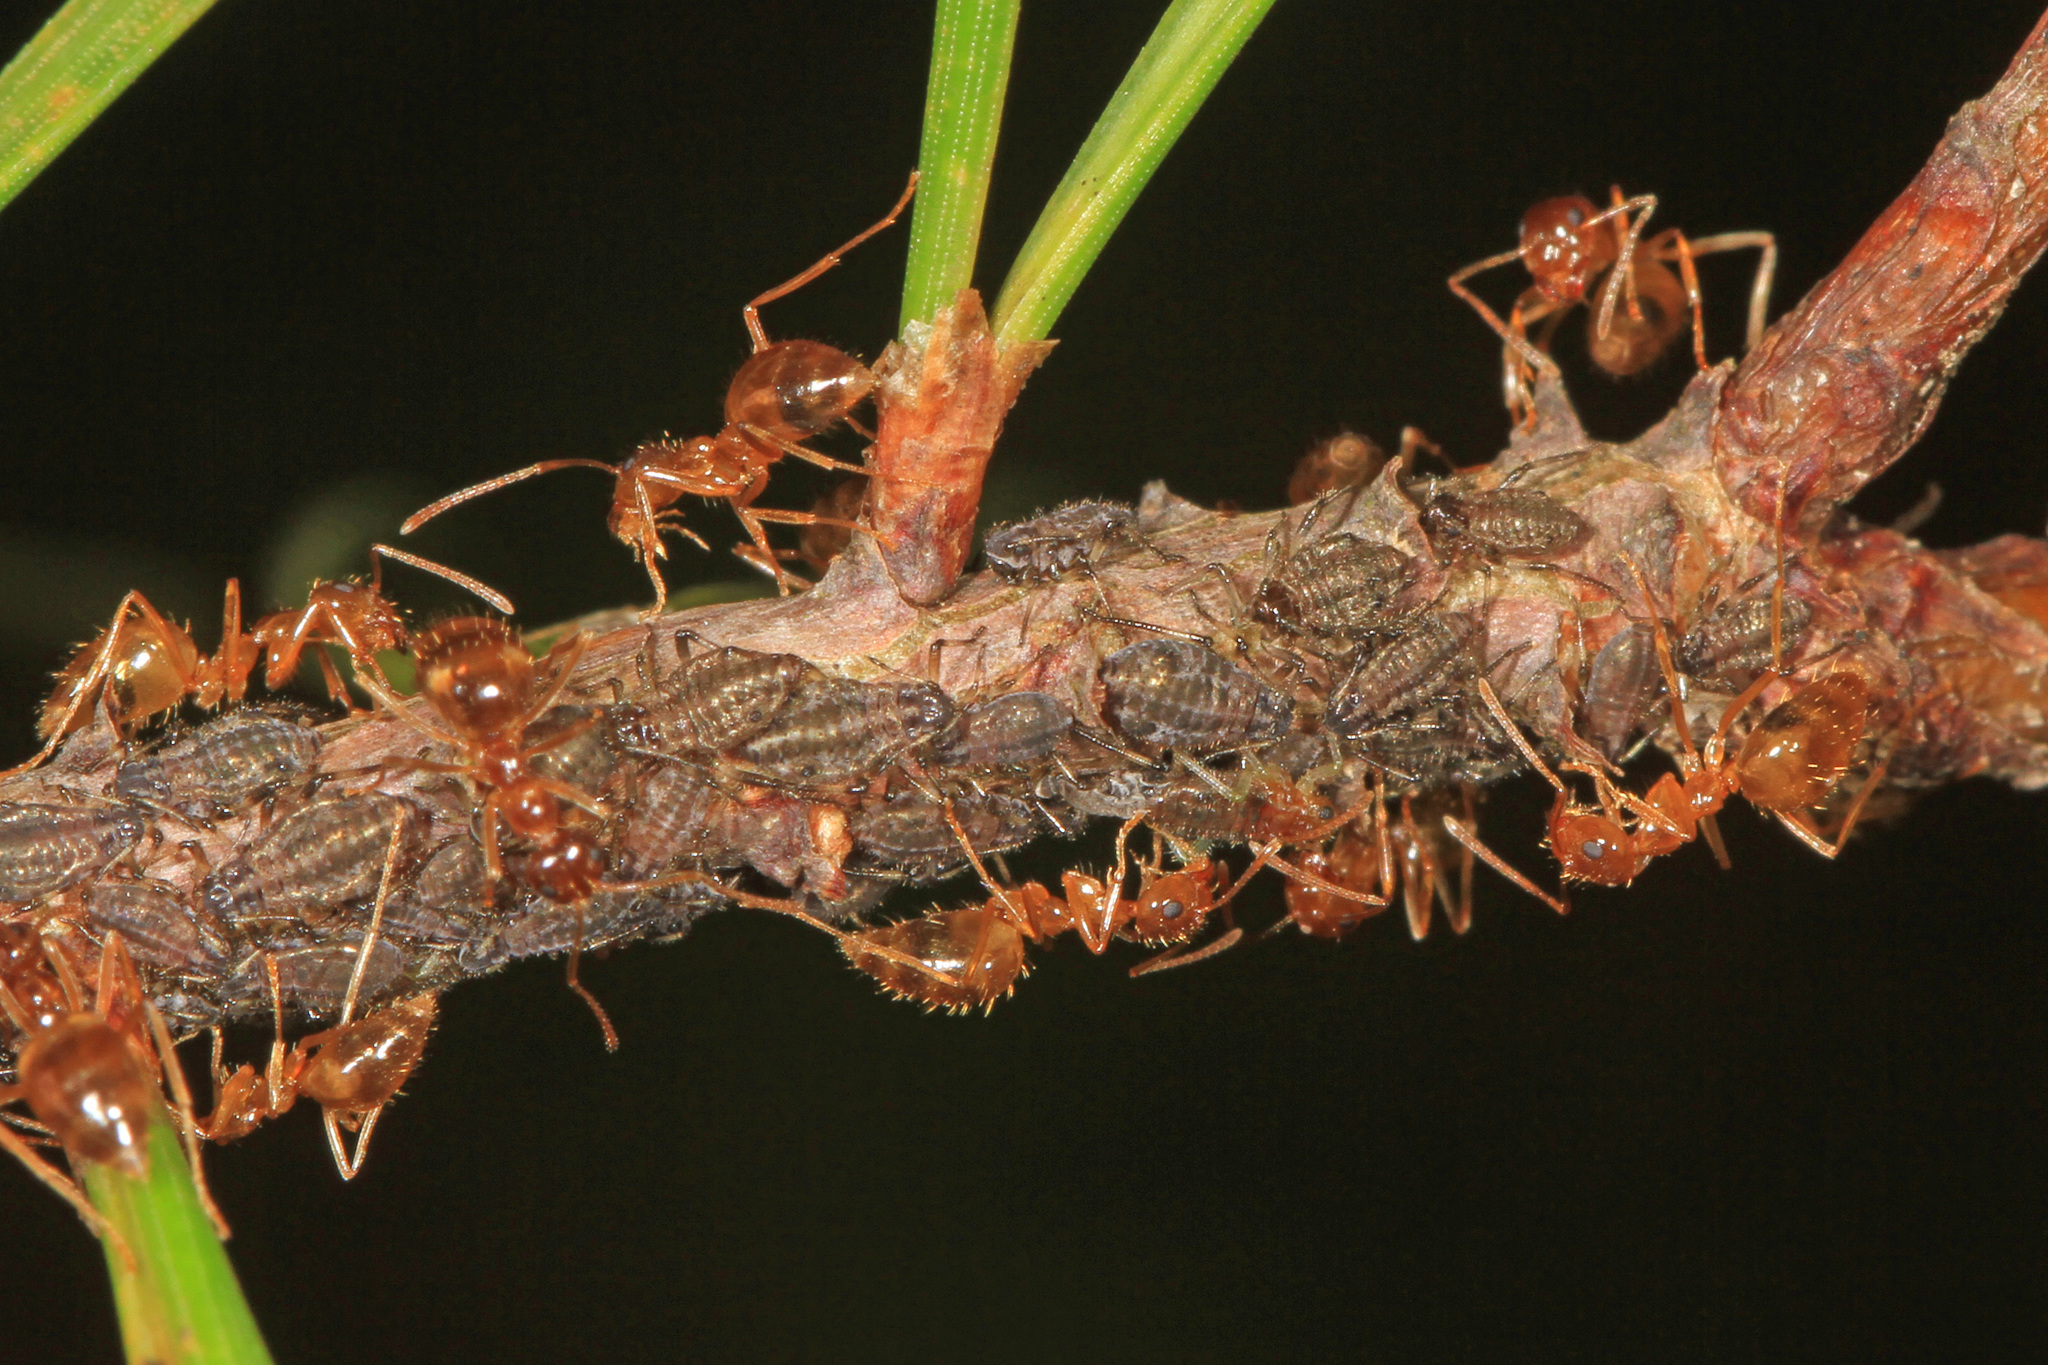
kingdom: Animalia
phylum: Arthropoda
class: Insecta
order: Hymenoptera
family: Formicidae
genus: Prenolepis
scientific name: Prenolepis imparis
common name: Small honey ant
